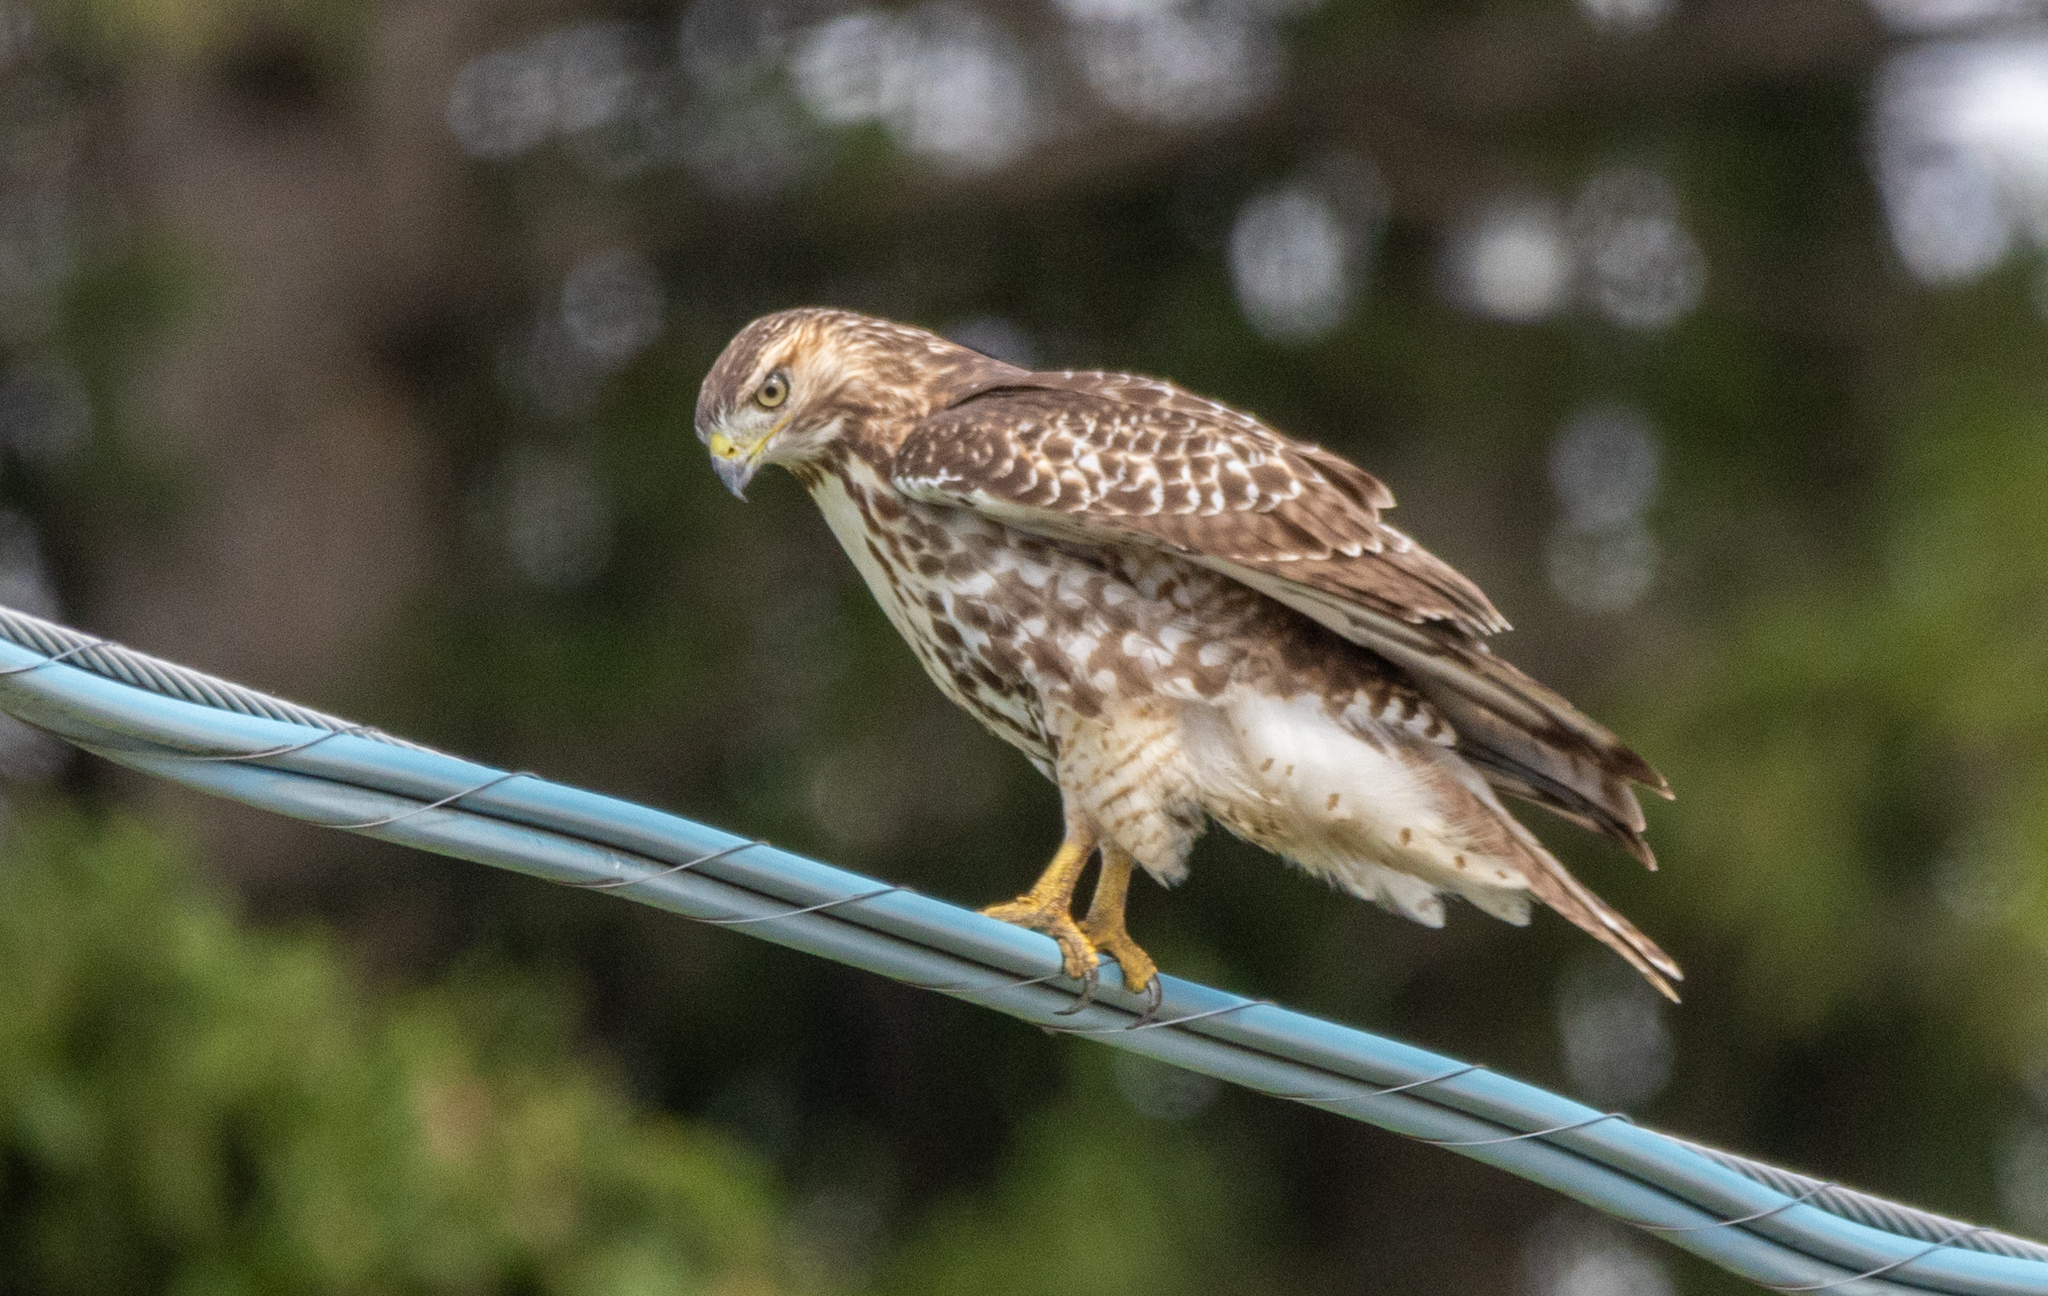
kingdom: Animalia
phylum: Chordata
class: Aves
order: Accipitriformes
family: Accipitridae
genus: Buteo
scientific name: Buteo jamaicensis
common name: Red-tailed hawk
